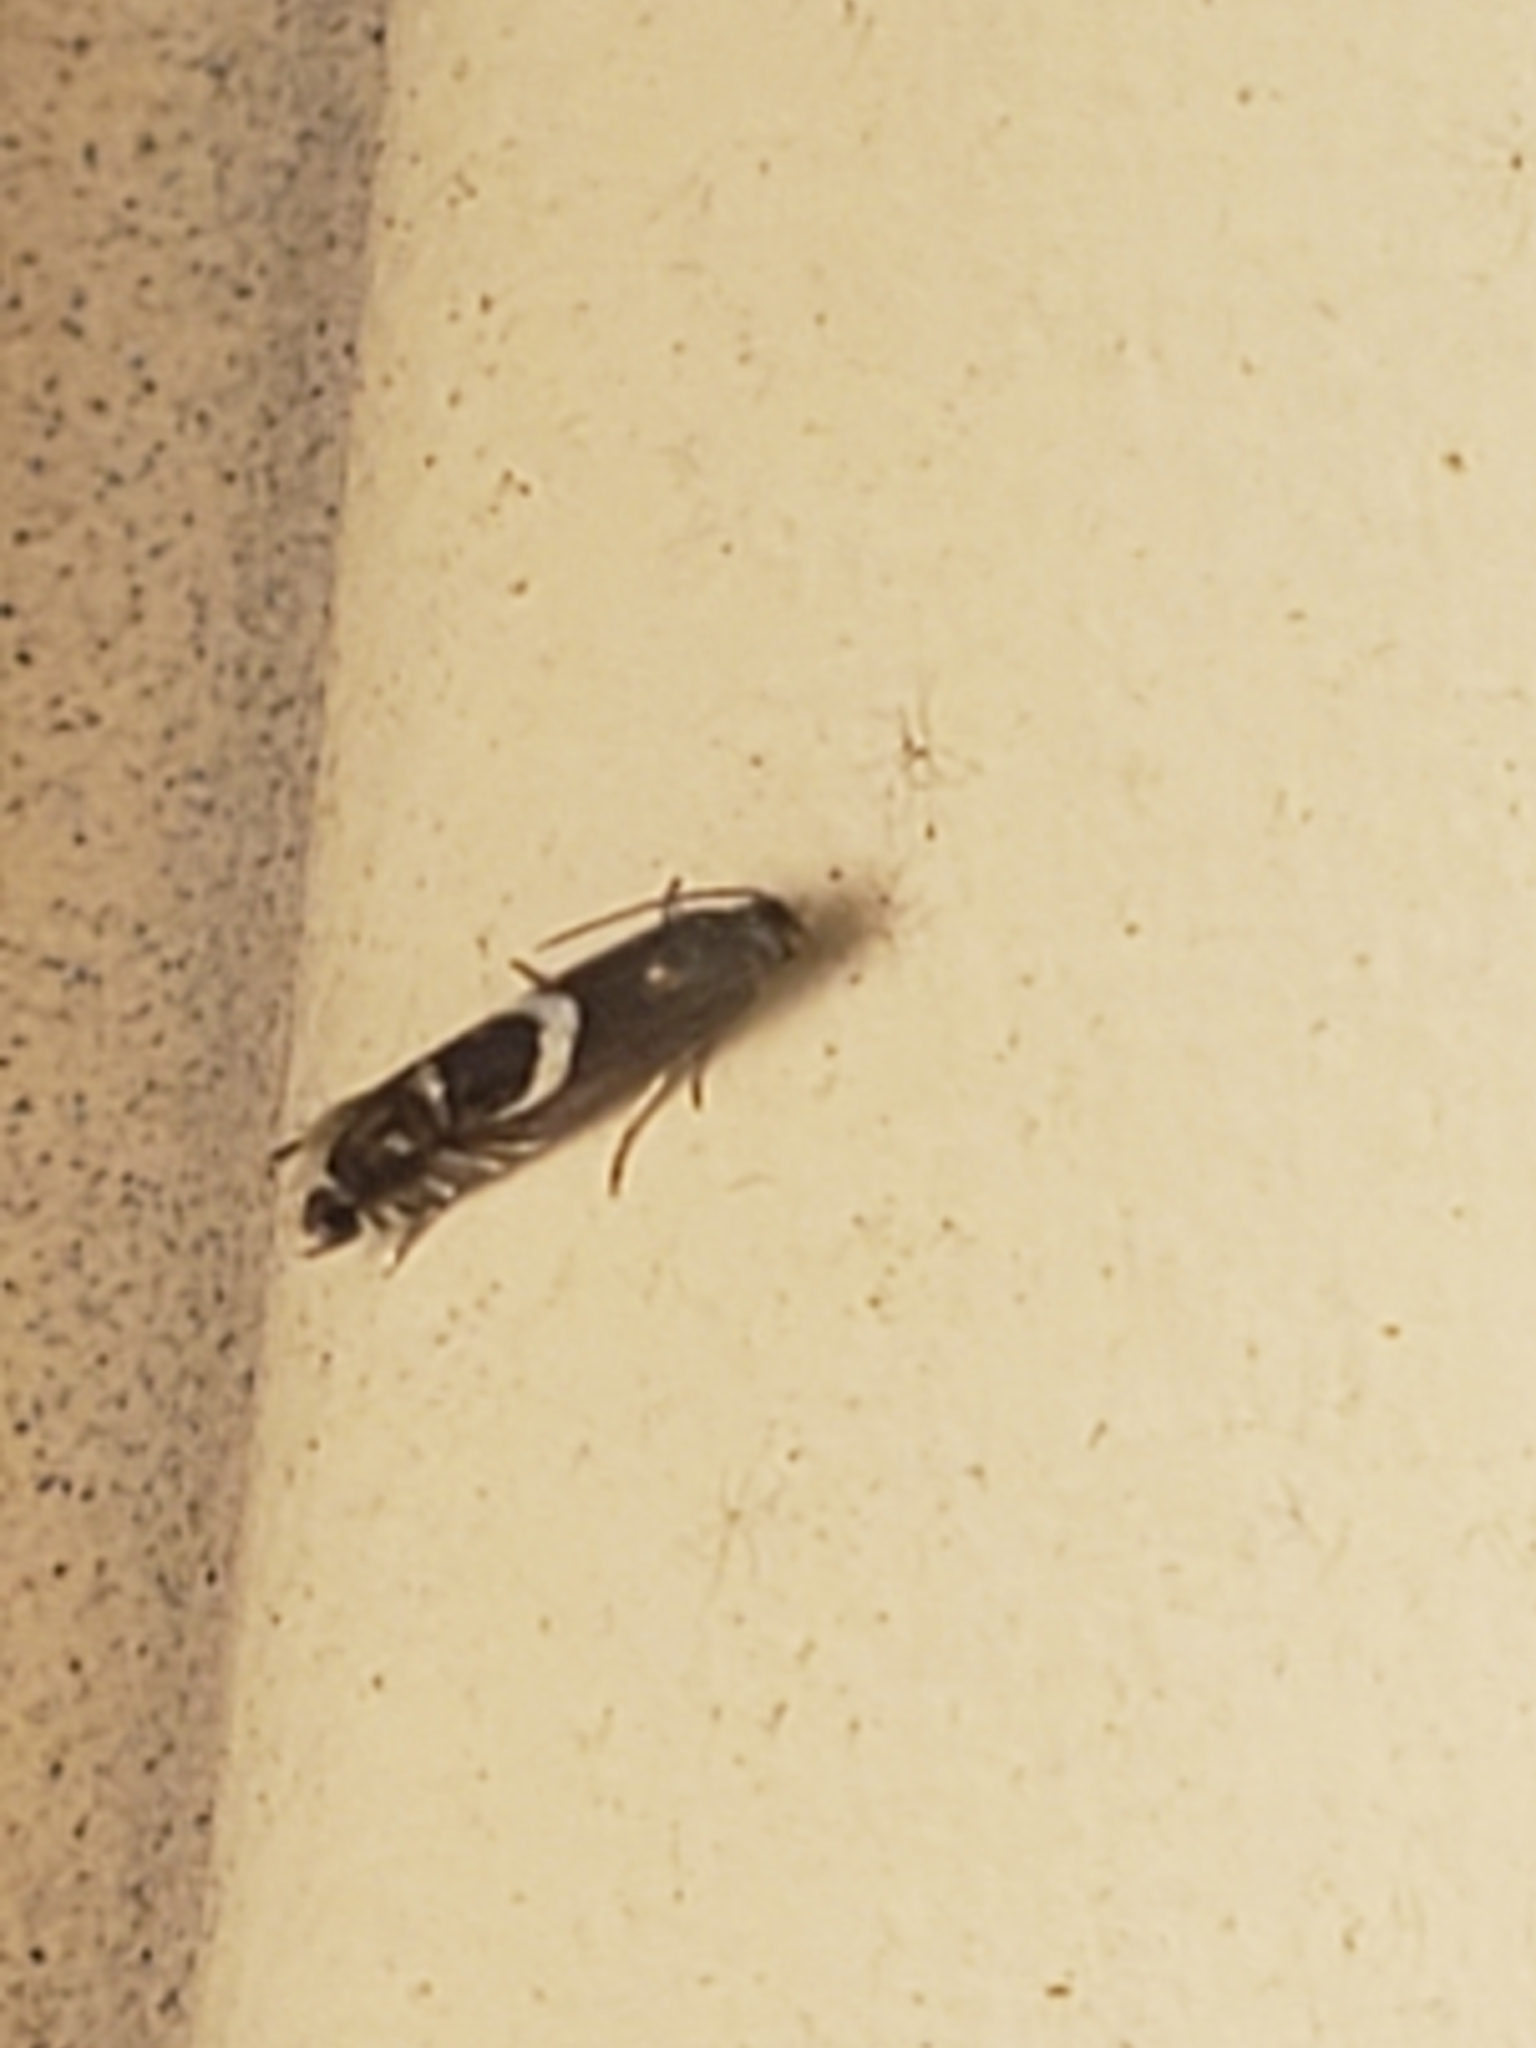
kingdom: Animalia
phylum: Arthropoda
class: Insecta
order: Lepidoptera
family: Glyphipterigidae
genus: Glyphipterix
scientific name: Glyphipterix Diploschizia impigritella
